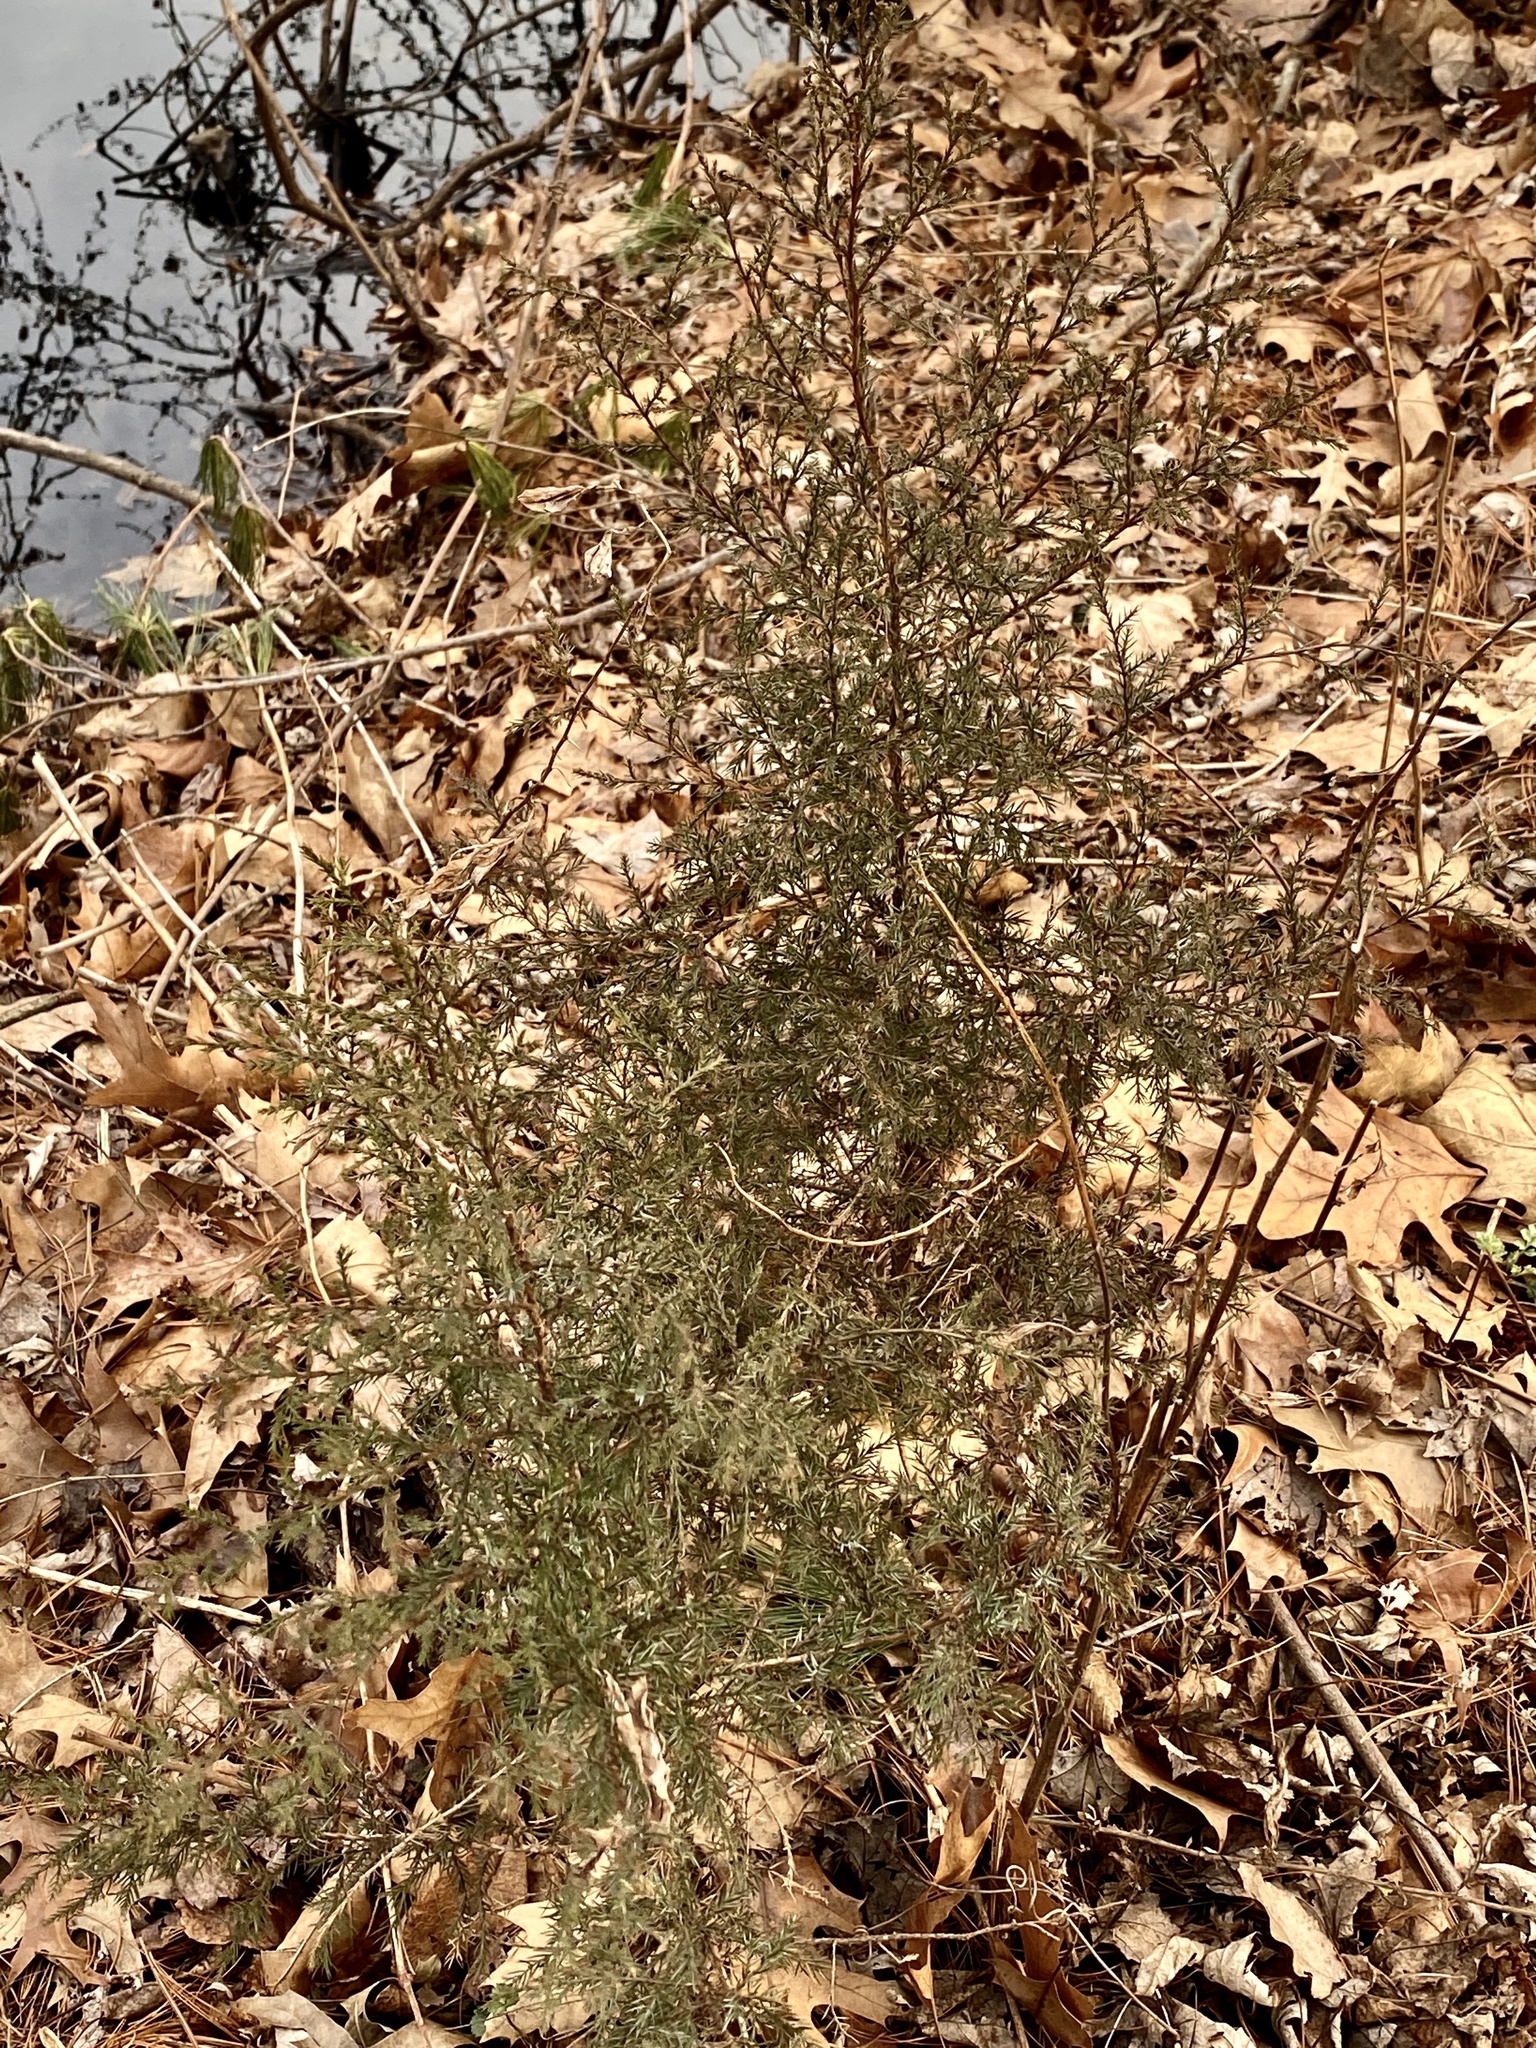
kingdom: Plantae
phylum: Tracheophyta
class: Pinopsida
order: Pinales
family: Cupressaceae
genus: Juniperus
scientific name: Juniperus virginiana
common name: Red juniper
